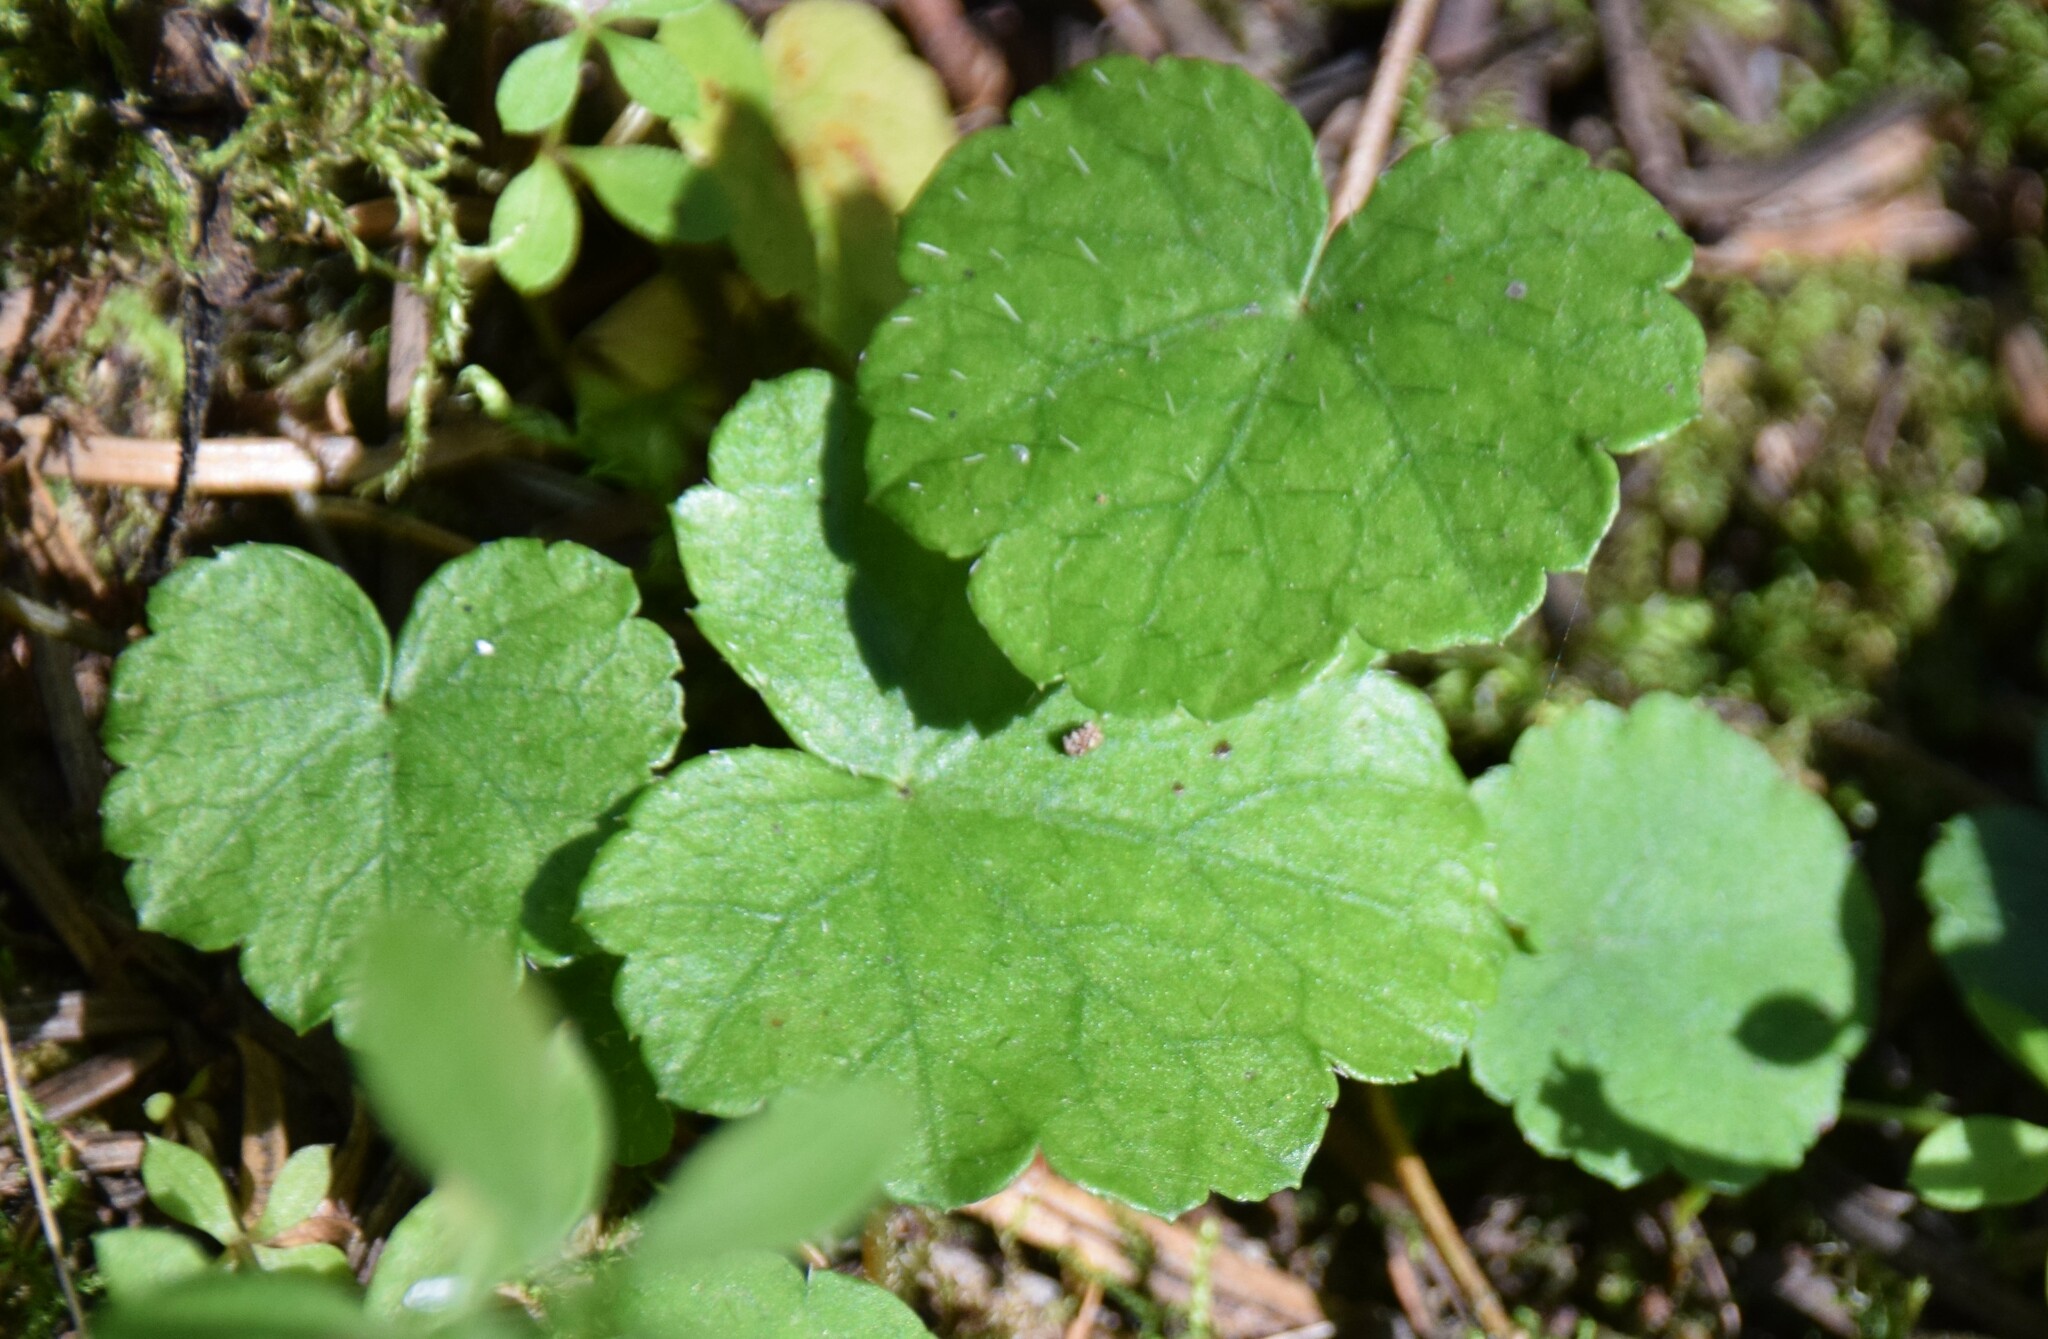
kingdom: Plantae
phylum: Tracheophyta
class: Magnoliopsida
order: Saxifragales
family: Saxifragaceae
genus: Mitella
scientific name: Mitella nuda
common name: Bare-stemmed bishop's-cap
